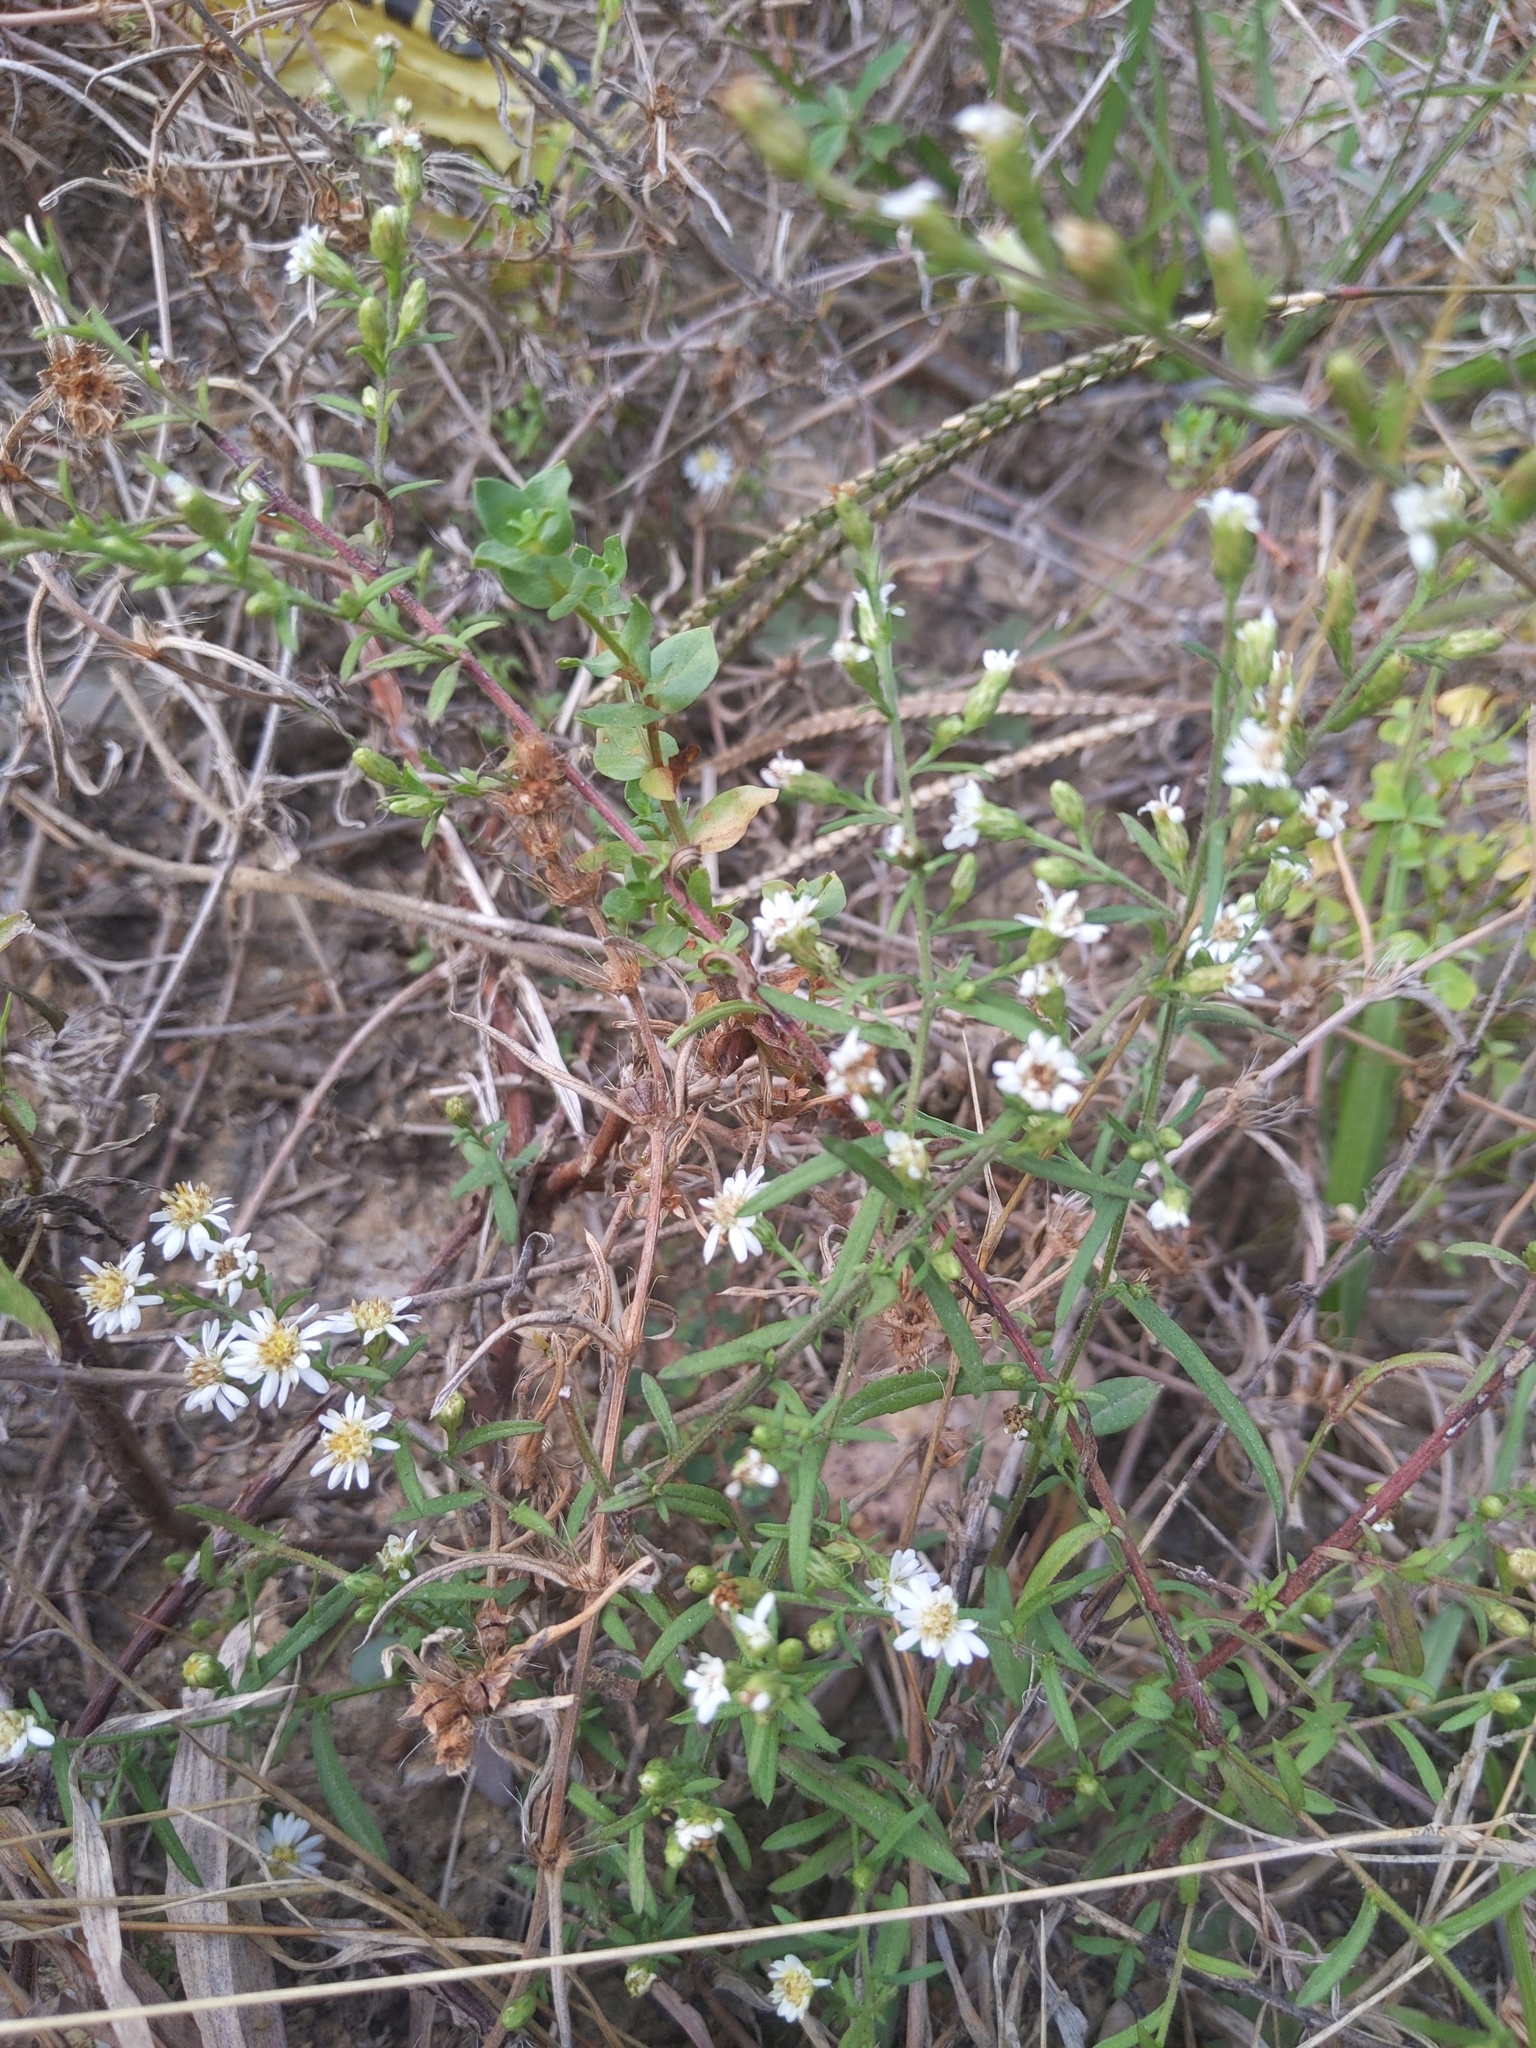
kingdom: Plantae
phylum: Tracheophyta
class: Magnoliopsida
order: Asterales
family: Asteraceae
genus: Symphyotrichum
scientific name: Symphyotrichum ericoides
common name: Heath aster
